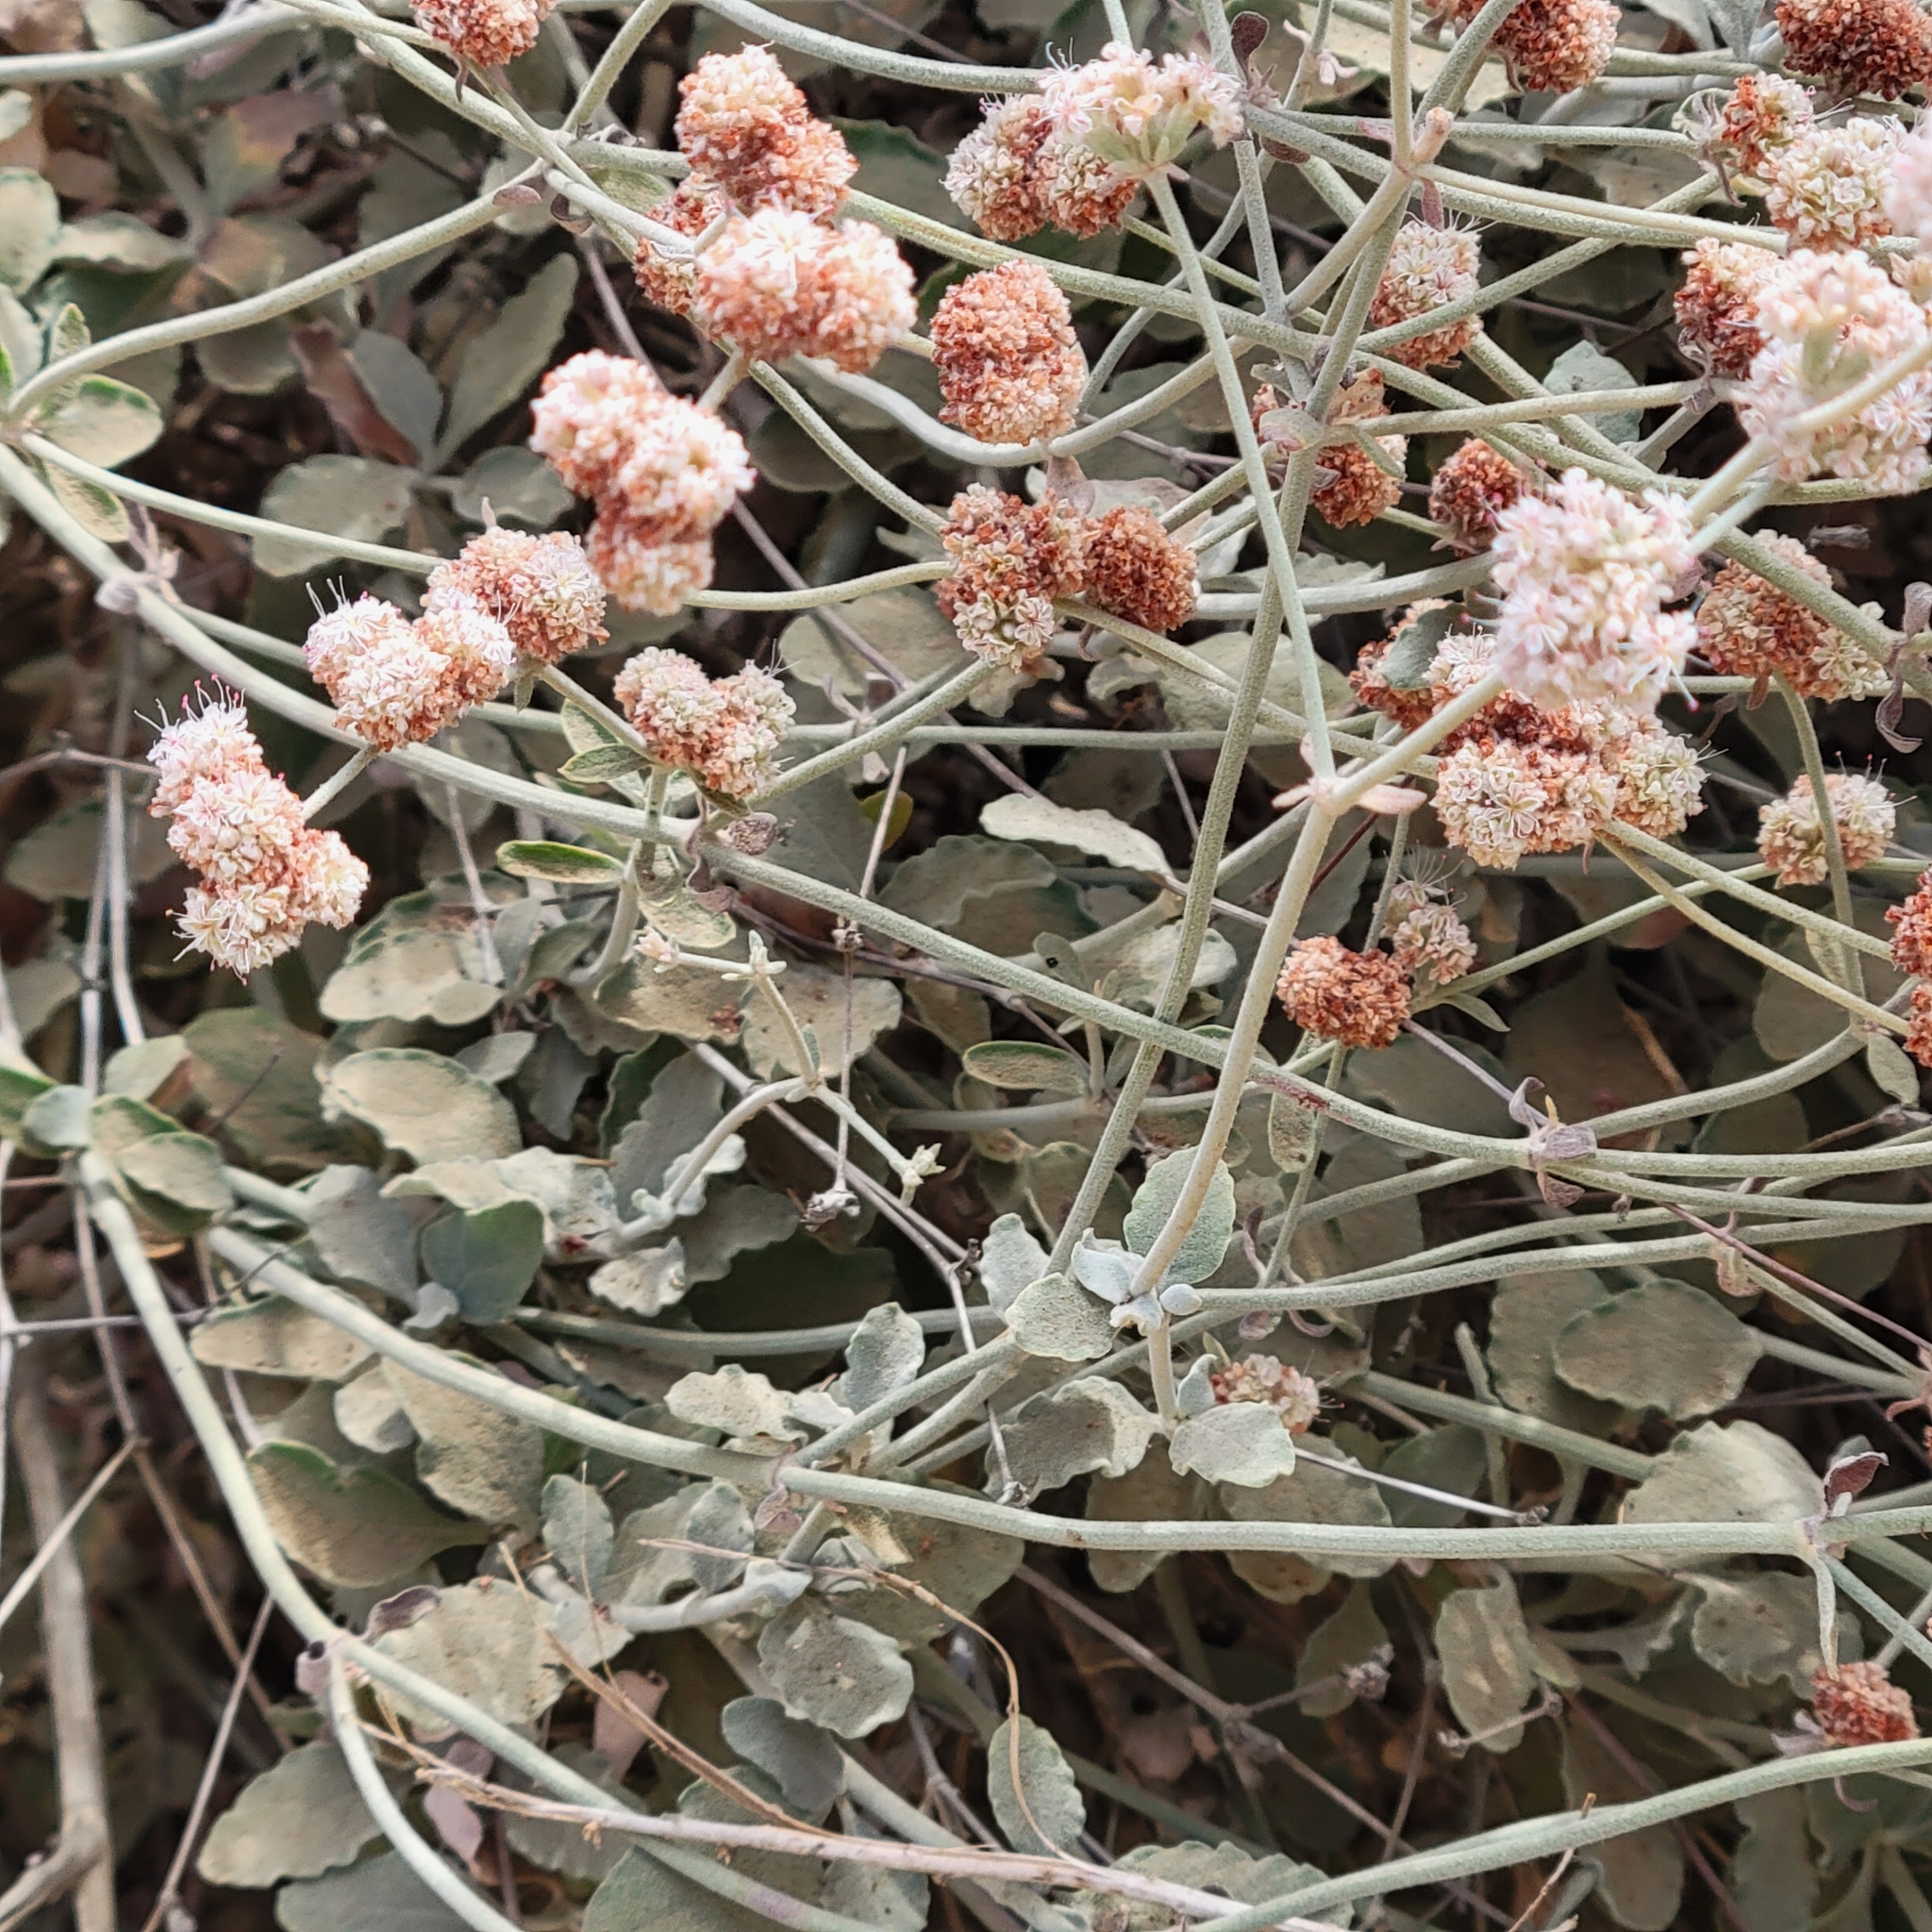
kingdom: Plantae
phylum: Tracheophyta
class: Magnoliopsida
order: Caryophyllales
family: Polygonaceae
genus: Eriogonum
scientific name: Eriogonum cinereum
